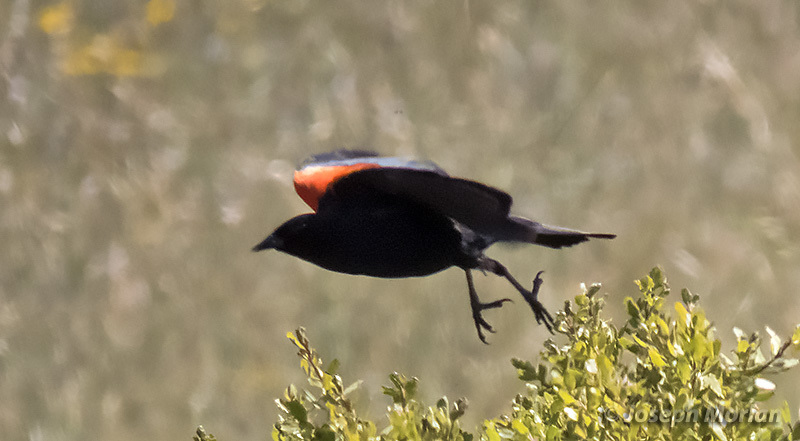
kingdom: Animalia
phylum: Chordata
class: Aves
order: Passeriformes
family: Icteridae
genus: Agelaius
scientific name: Agelaius phoeniceus
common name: Red-winged blackbird
